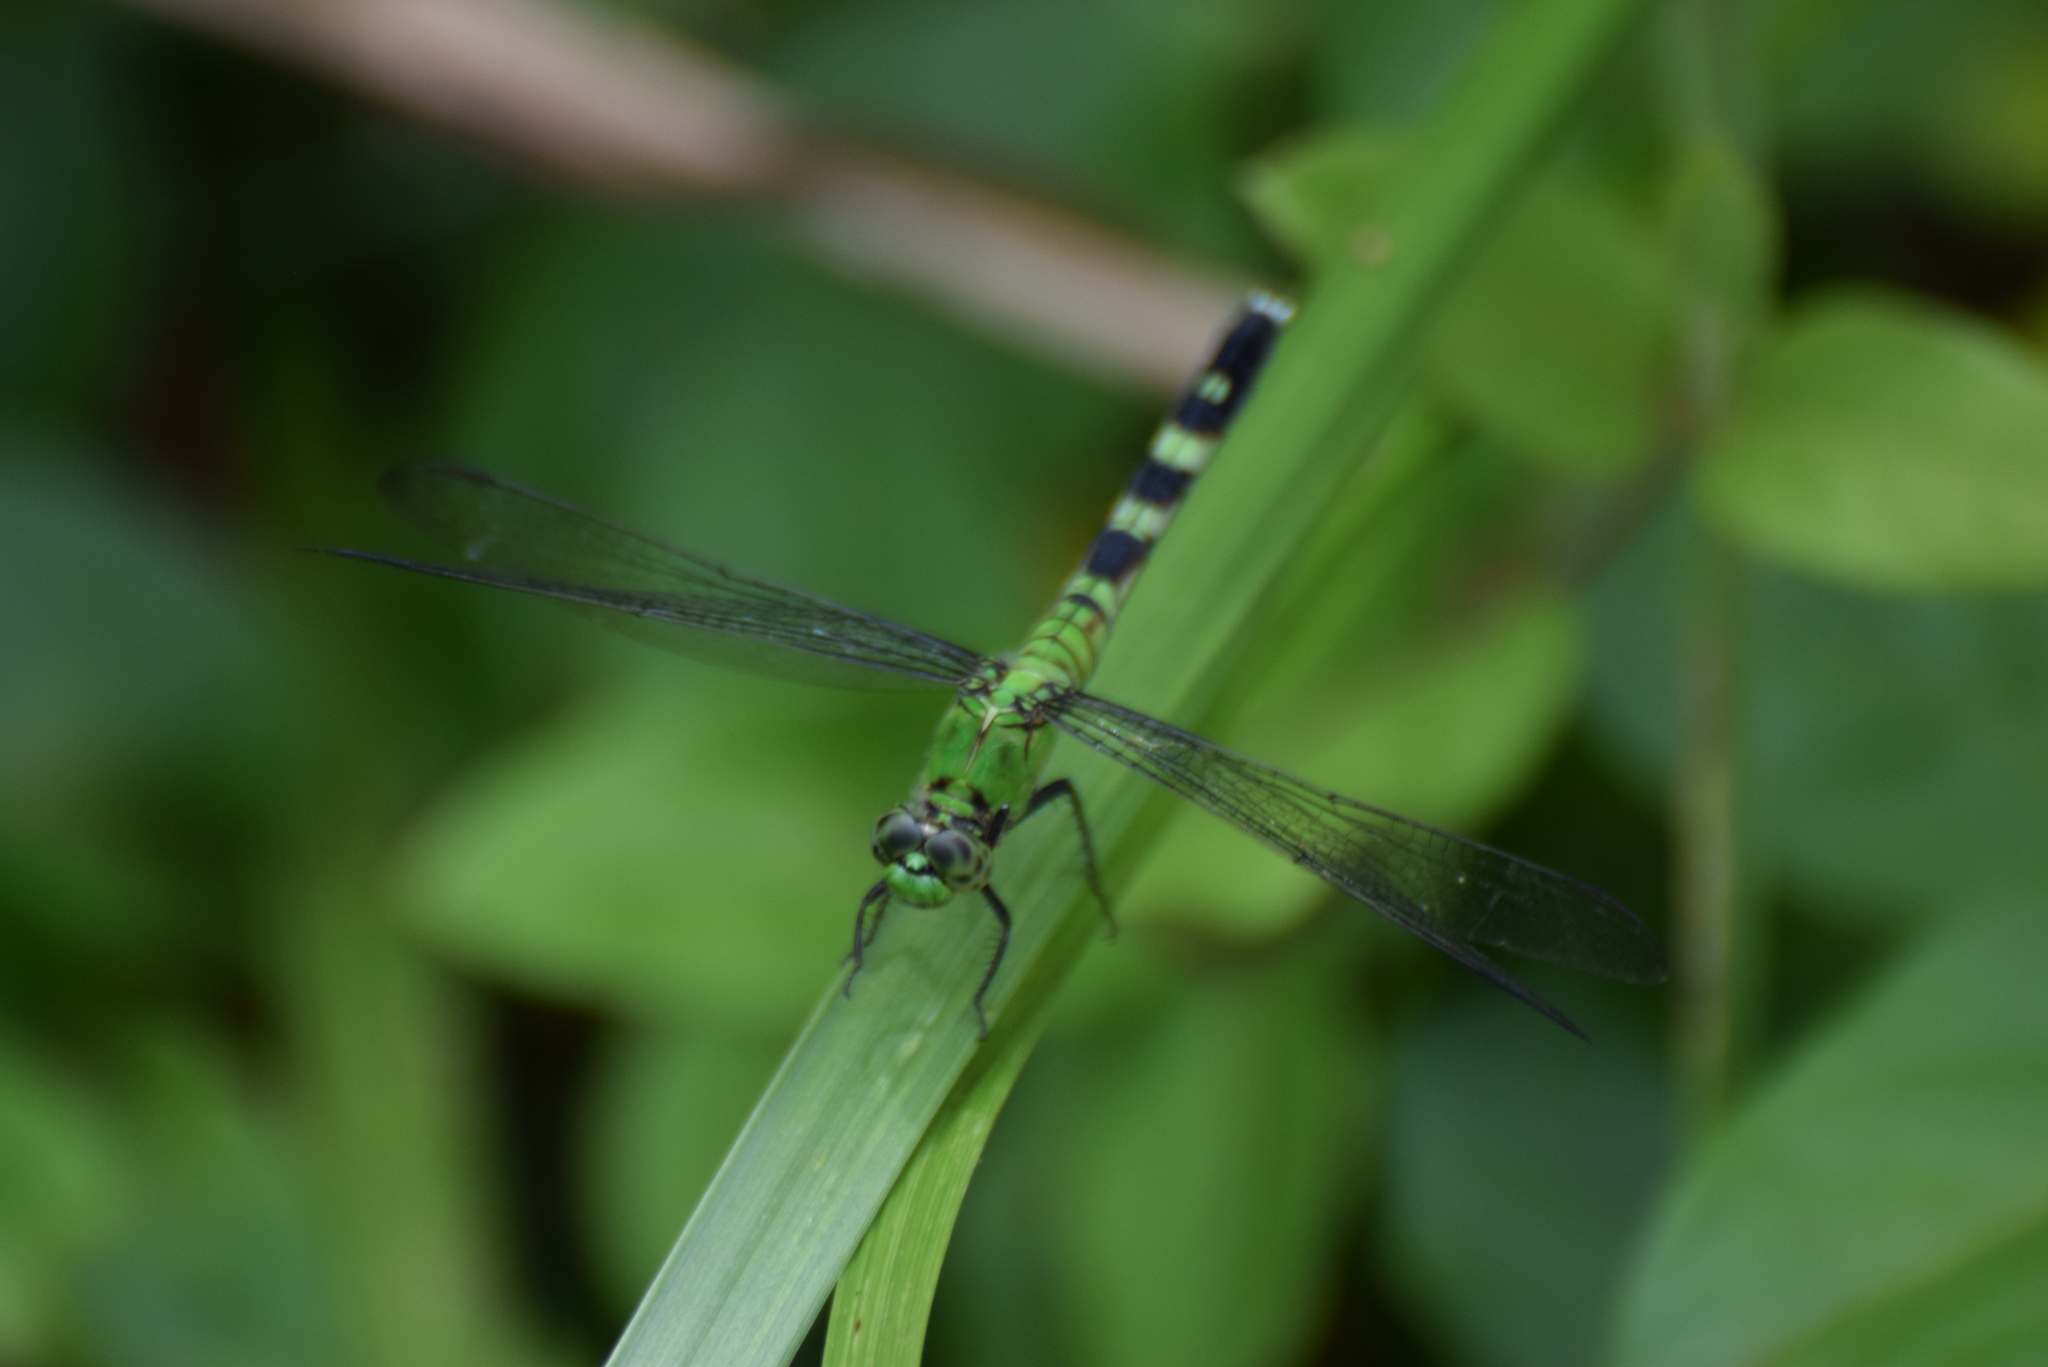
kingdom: Animalia
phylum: Arthropoda
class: Insecta
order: Odonata
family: Libellulidae
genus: Erythemis
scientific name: Erythemis simplicicollis
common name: Eastern pondhawk
